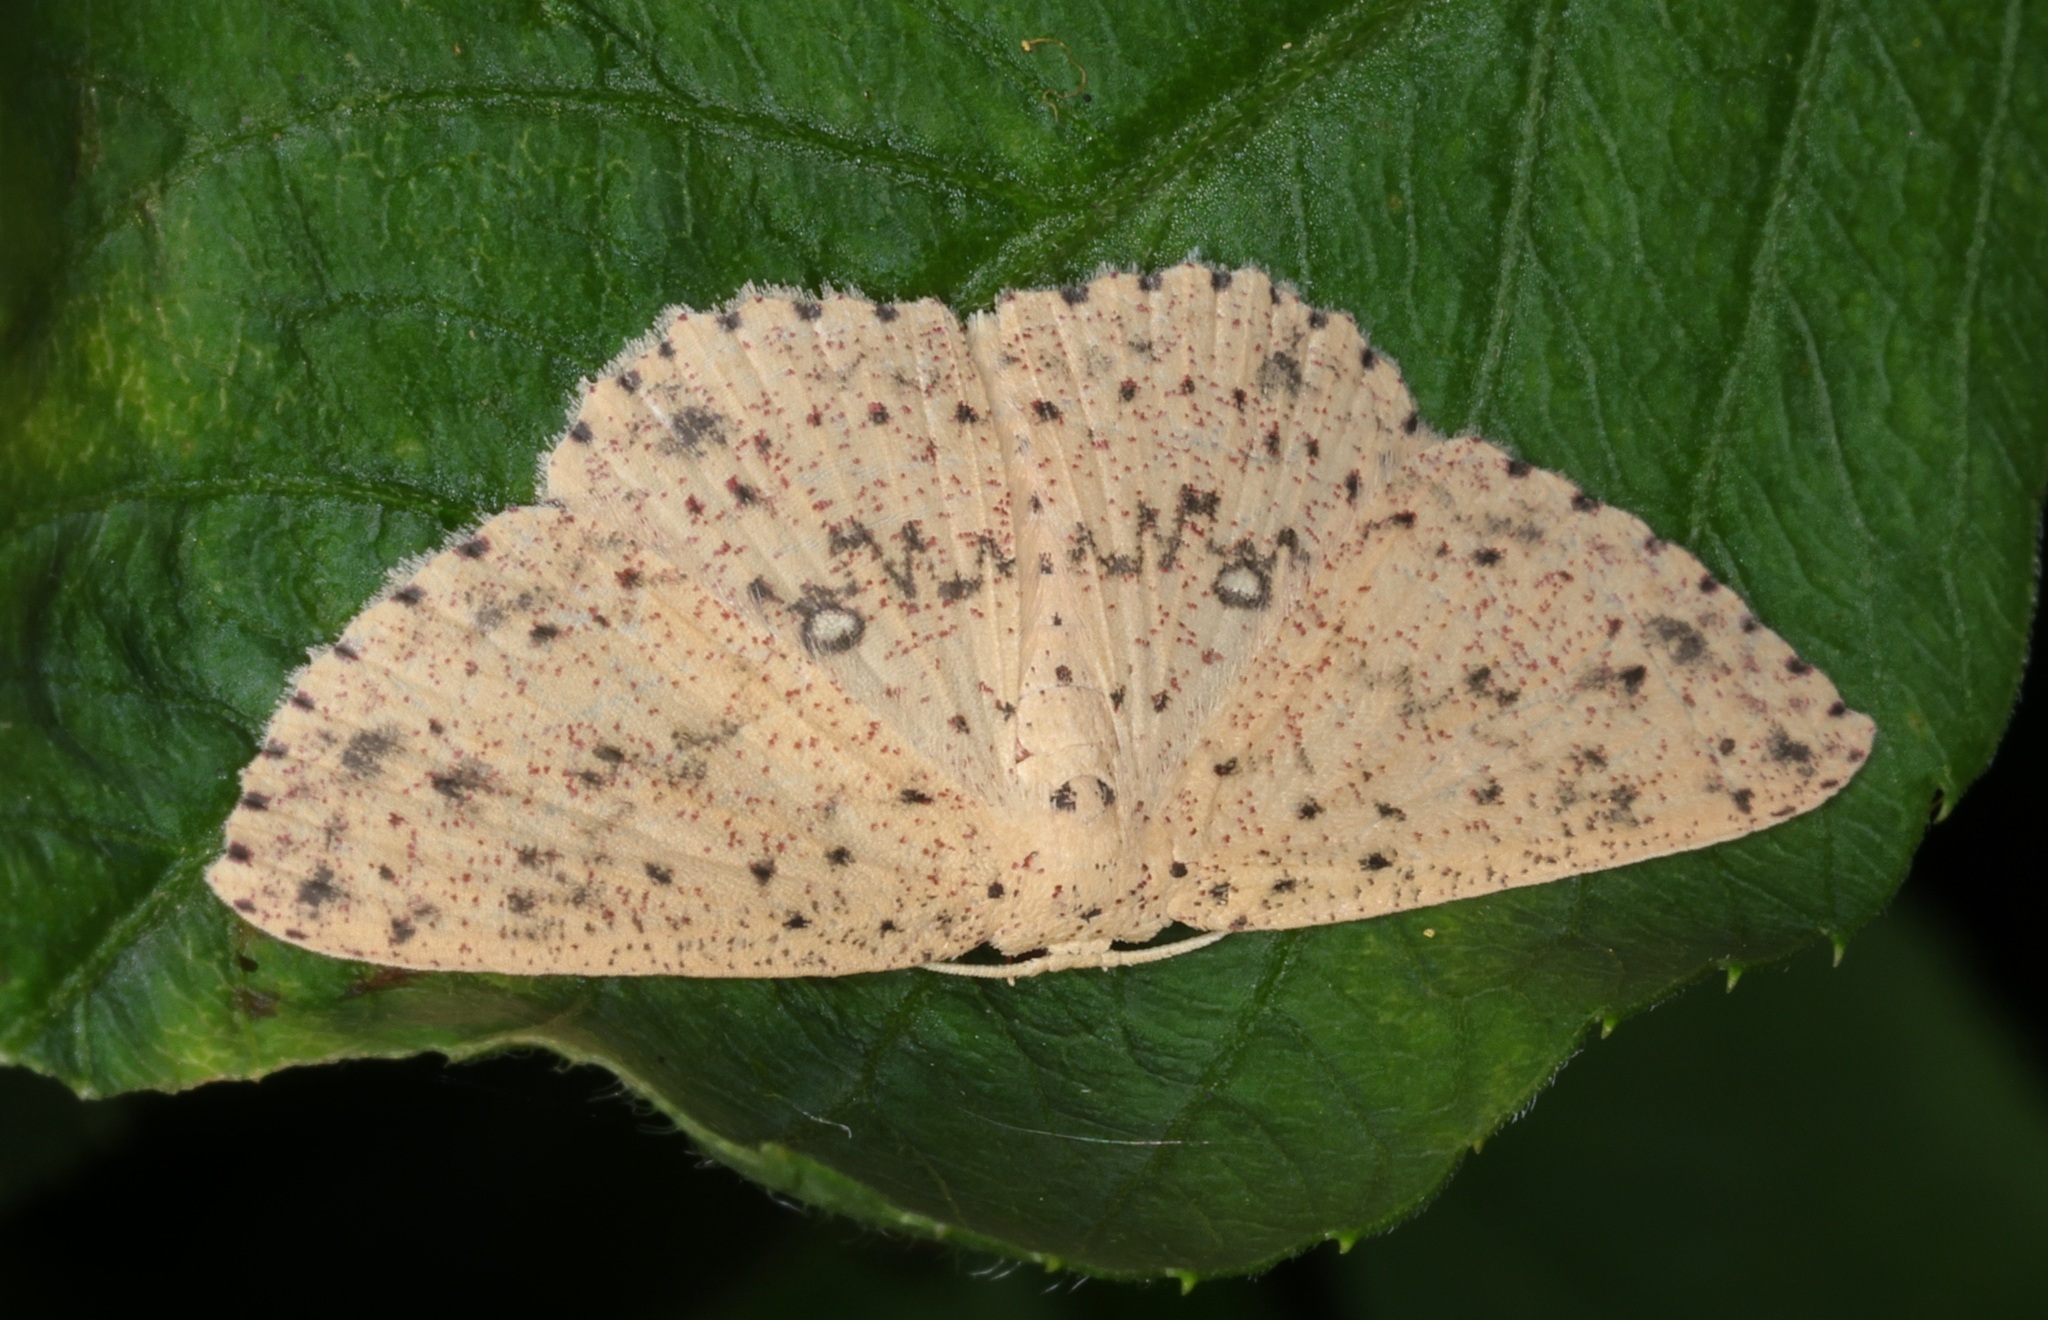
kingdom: Animalia
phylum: Arthropoda
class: Insecta
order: Lepidoptera
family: Geometridae
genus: Perixera
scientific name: Perixera decretarioides
